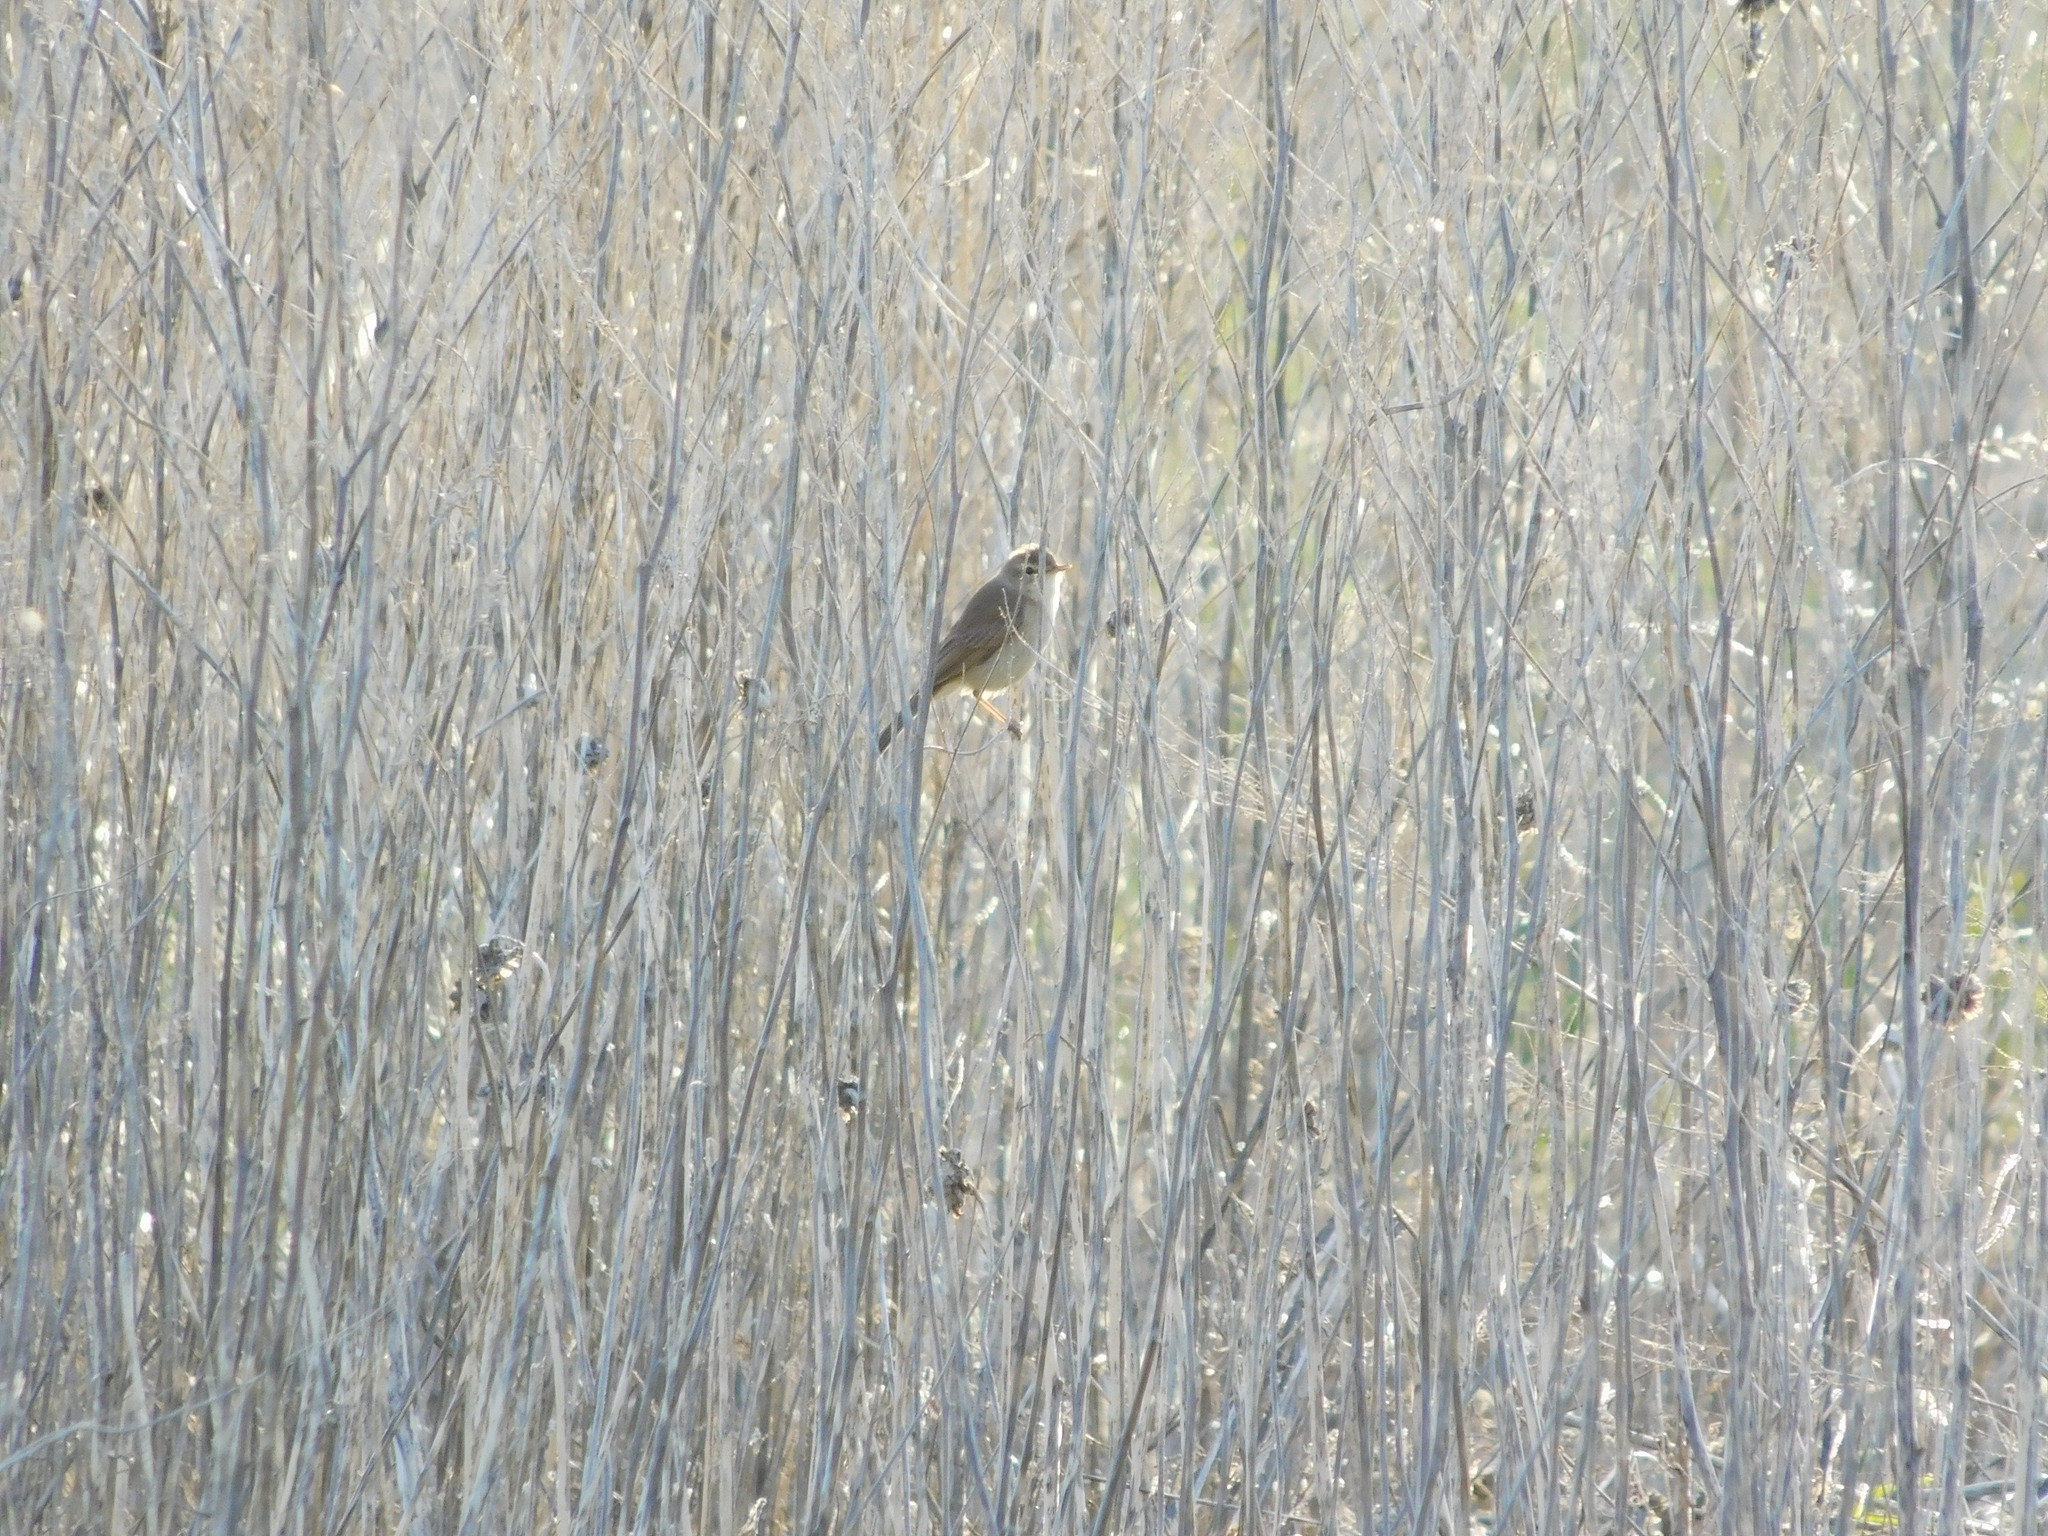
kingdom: Animalia
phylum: Chordata
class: Aves
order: Passeriformes
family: Acrocephalidae
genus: Iduna
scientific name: Iduna caligata
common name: Booted warbler
